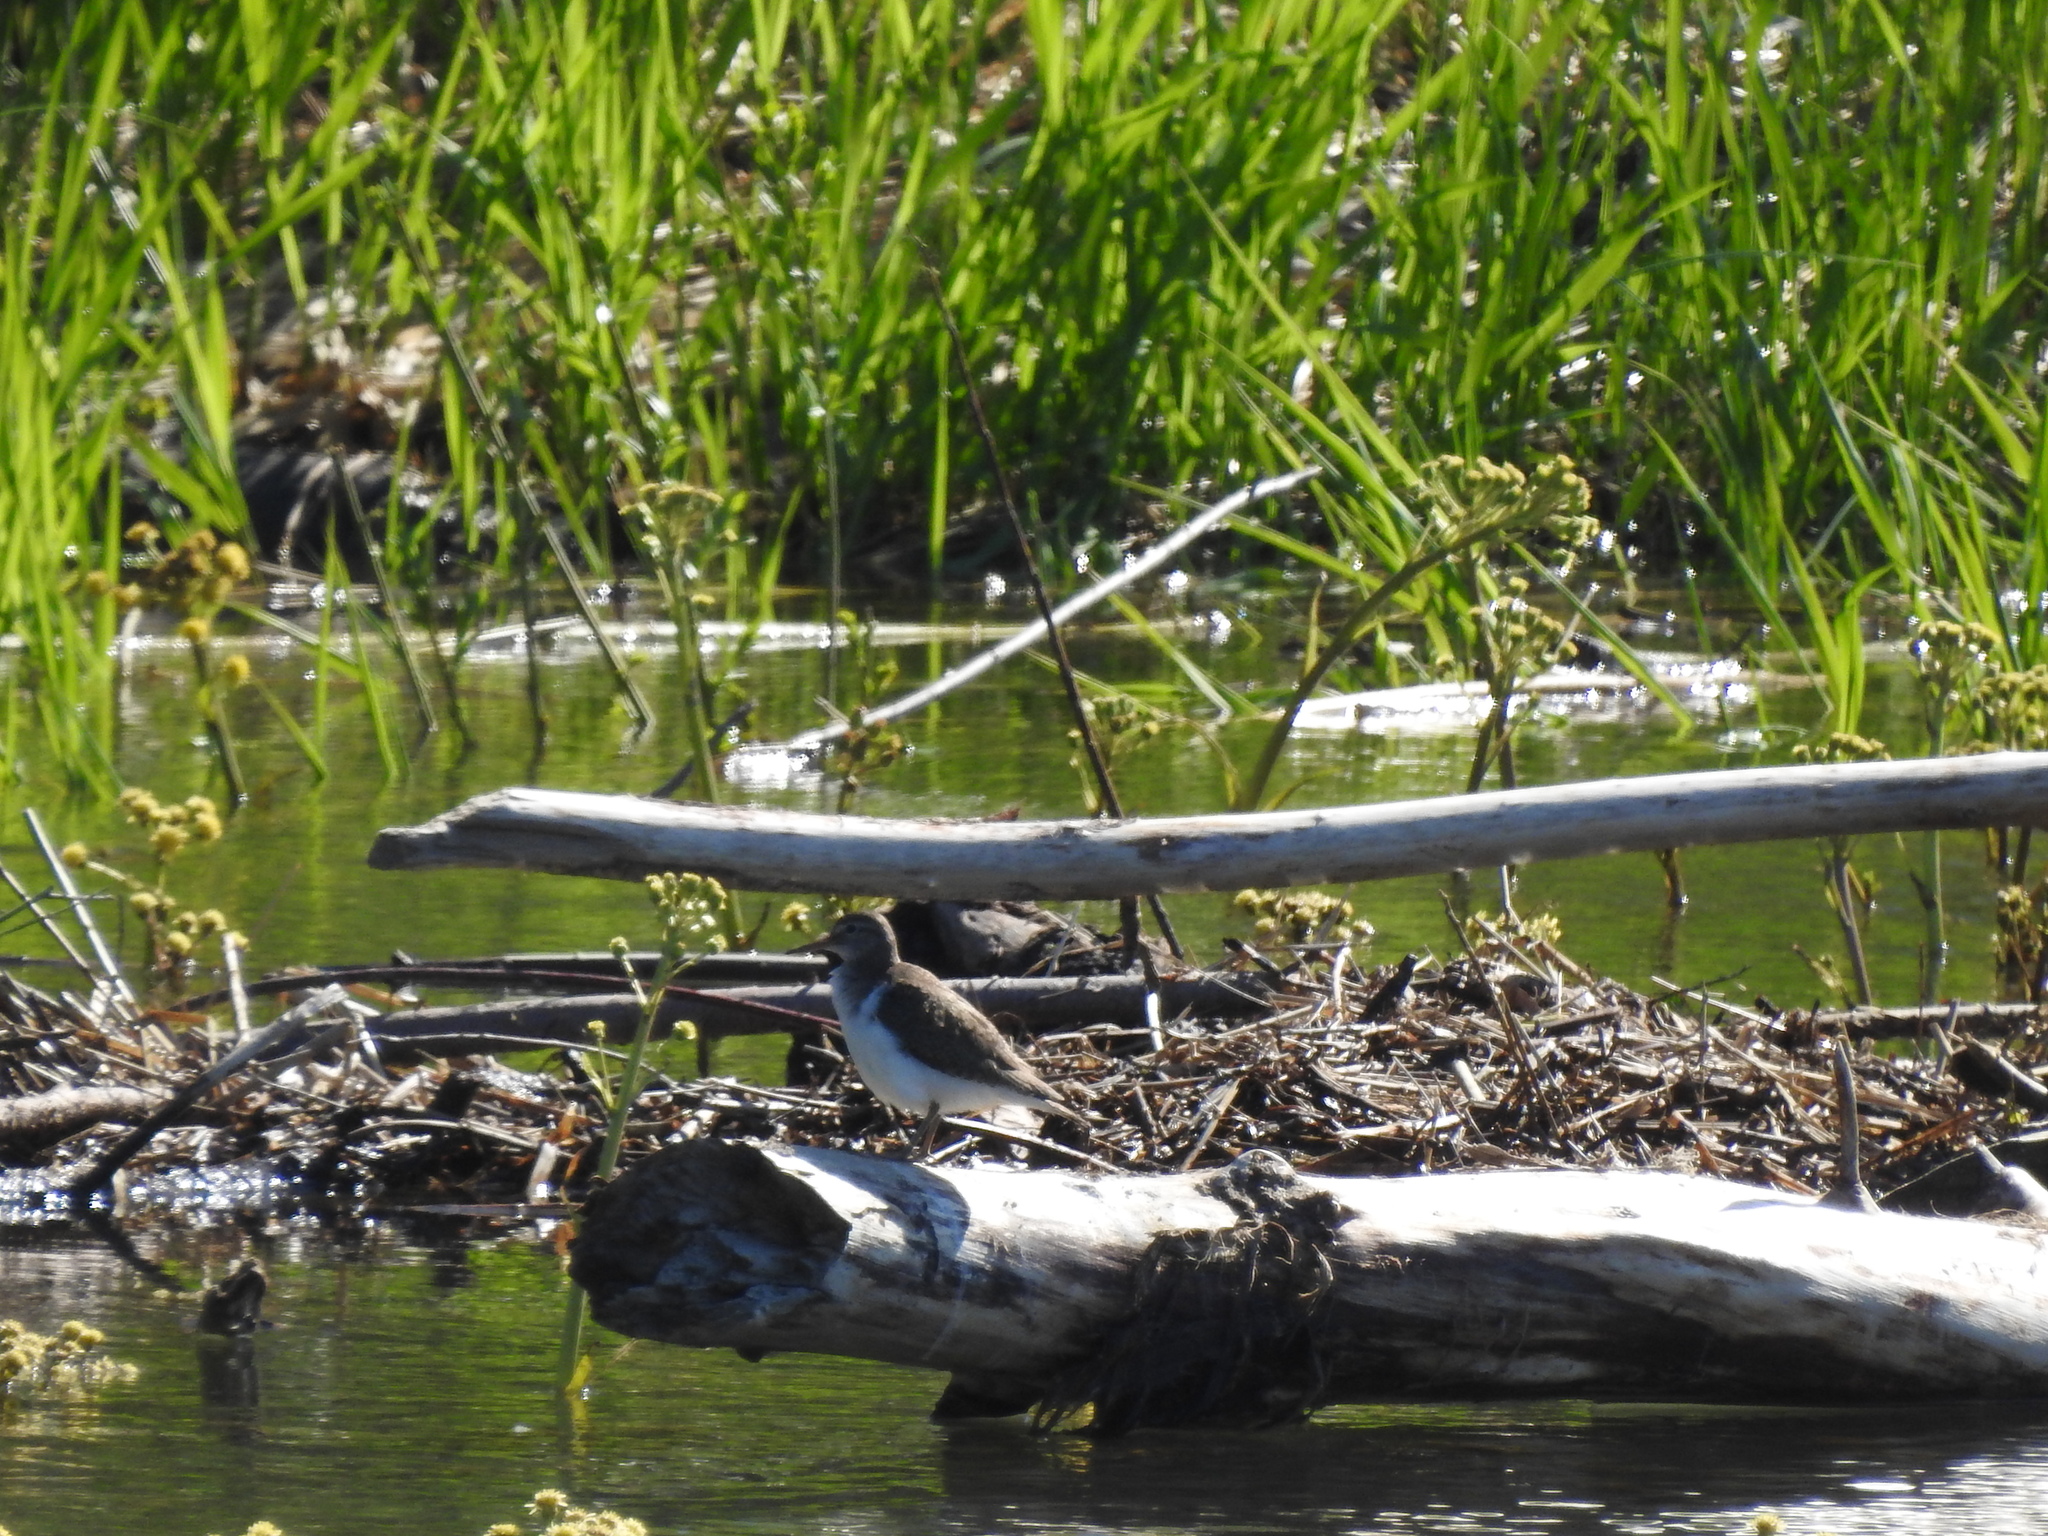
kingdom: Animalia
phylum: Chordata
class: Aves
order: Charadriiformes
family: Scolopacidae
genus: Actitis
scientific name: Actitis hypoleucos
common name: Common sandpiper
